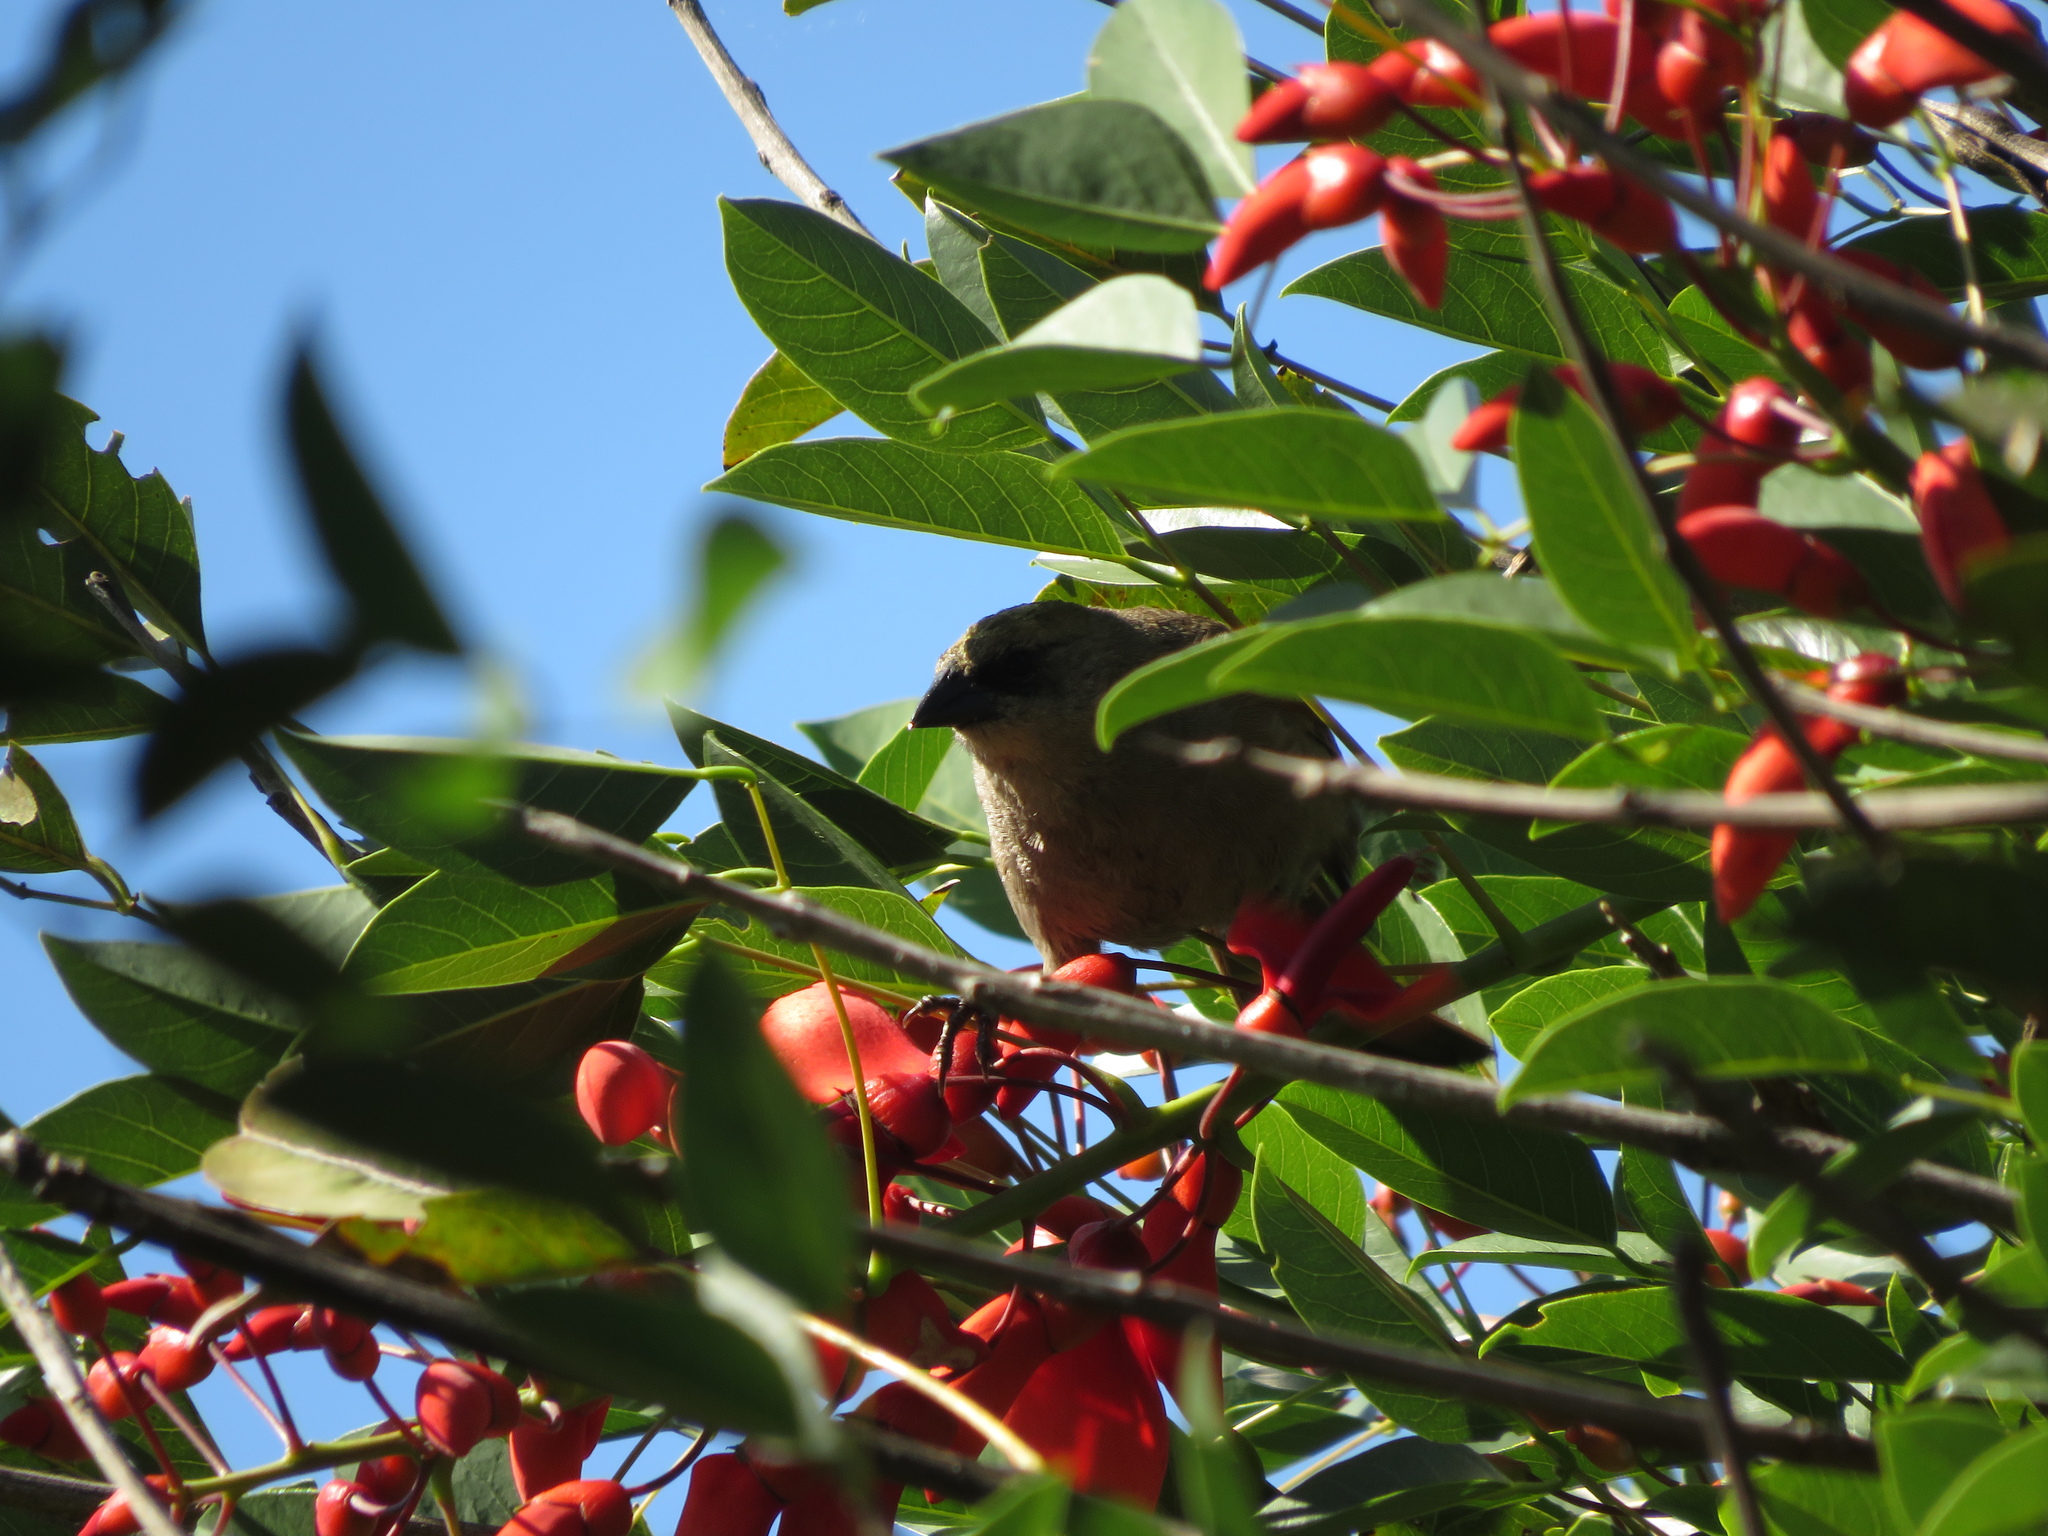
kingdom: Animalia
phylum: Chordata
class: Aves
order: Passeriformes
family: Icteridae
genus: Agelaioides
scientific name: Agelaioides badius
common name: Baywing
